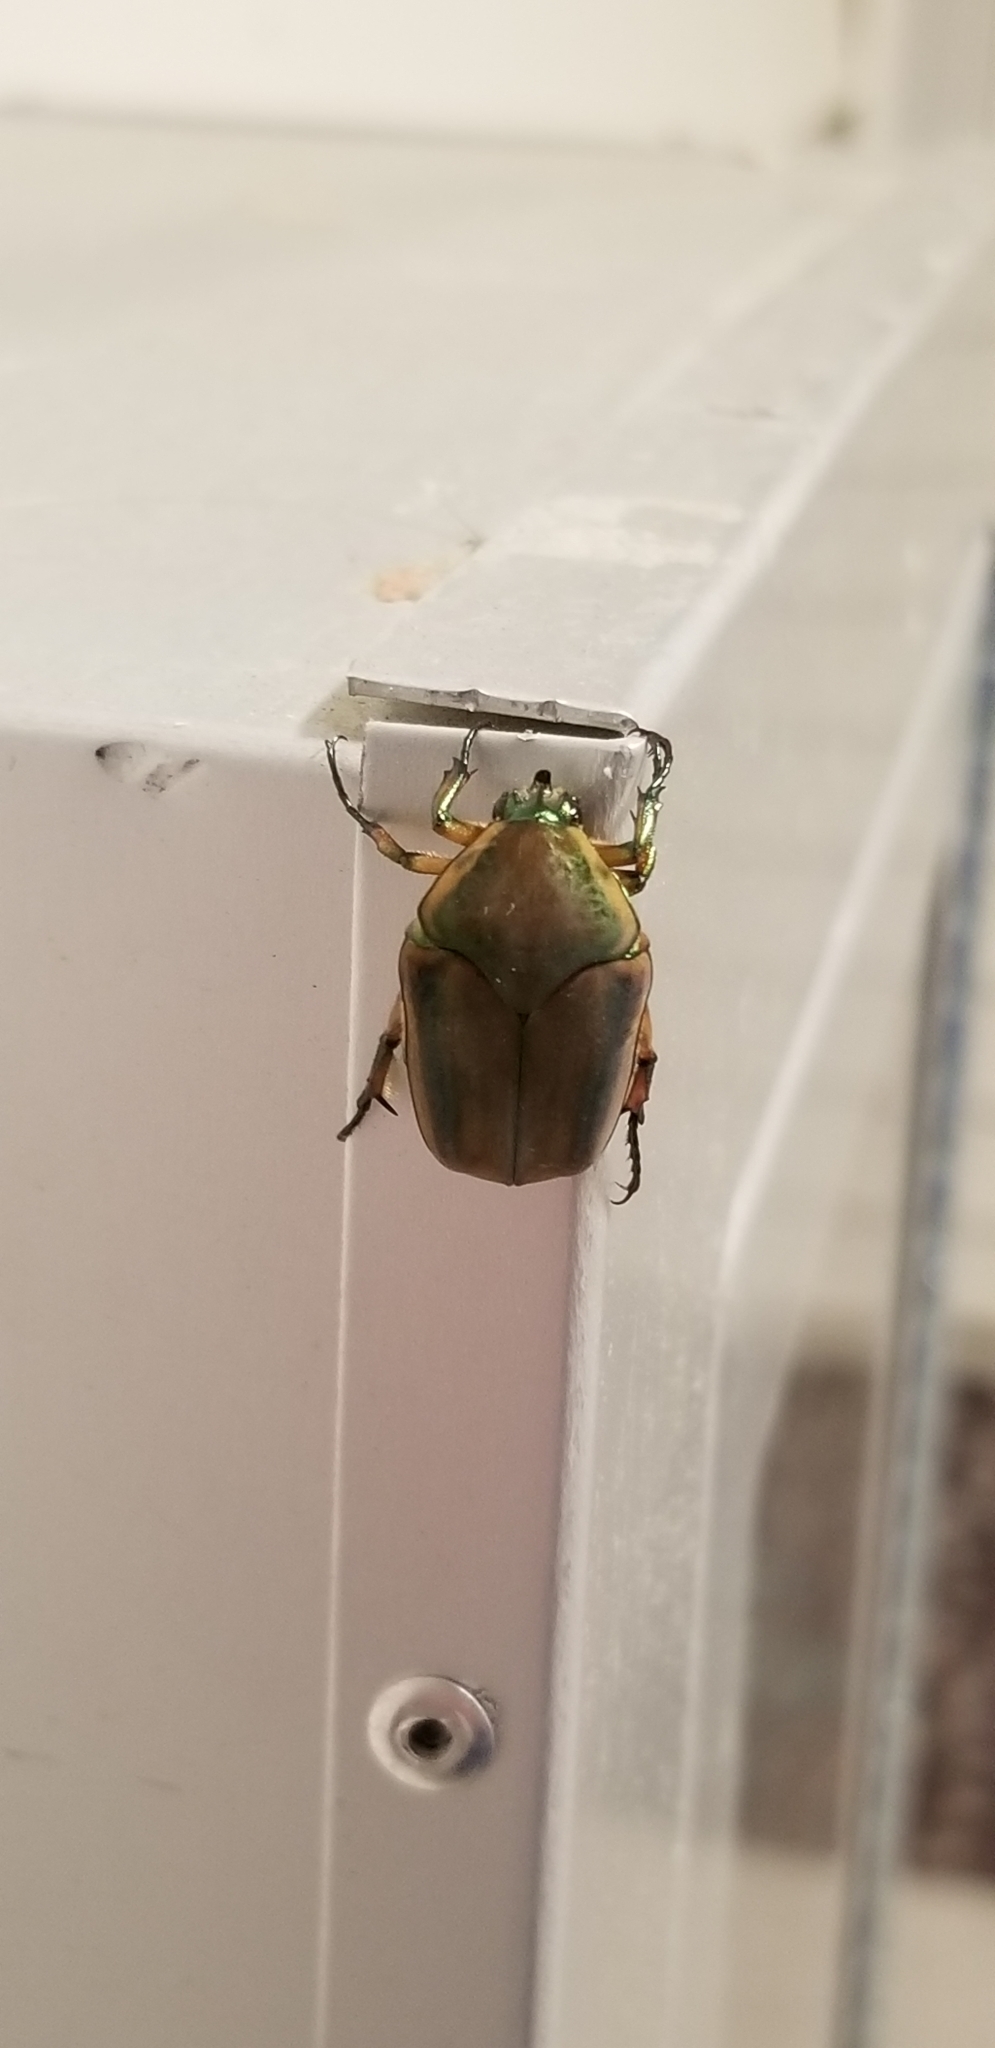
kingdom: Animalia
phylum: Arthropoda
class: Insecta
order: Coleoptera
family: Scarabaeidae
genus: Cotinis
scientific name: Cotinis nitida
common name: Common green june beetle
